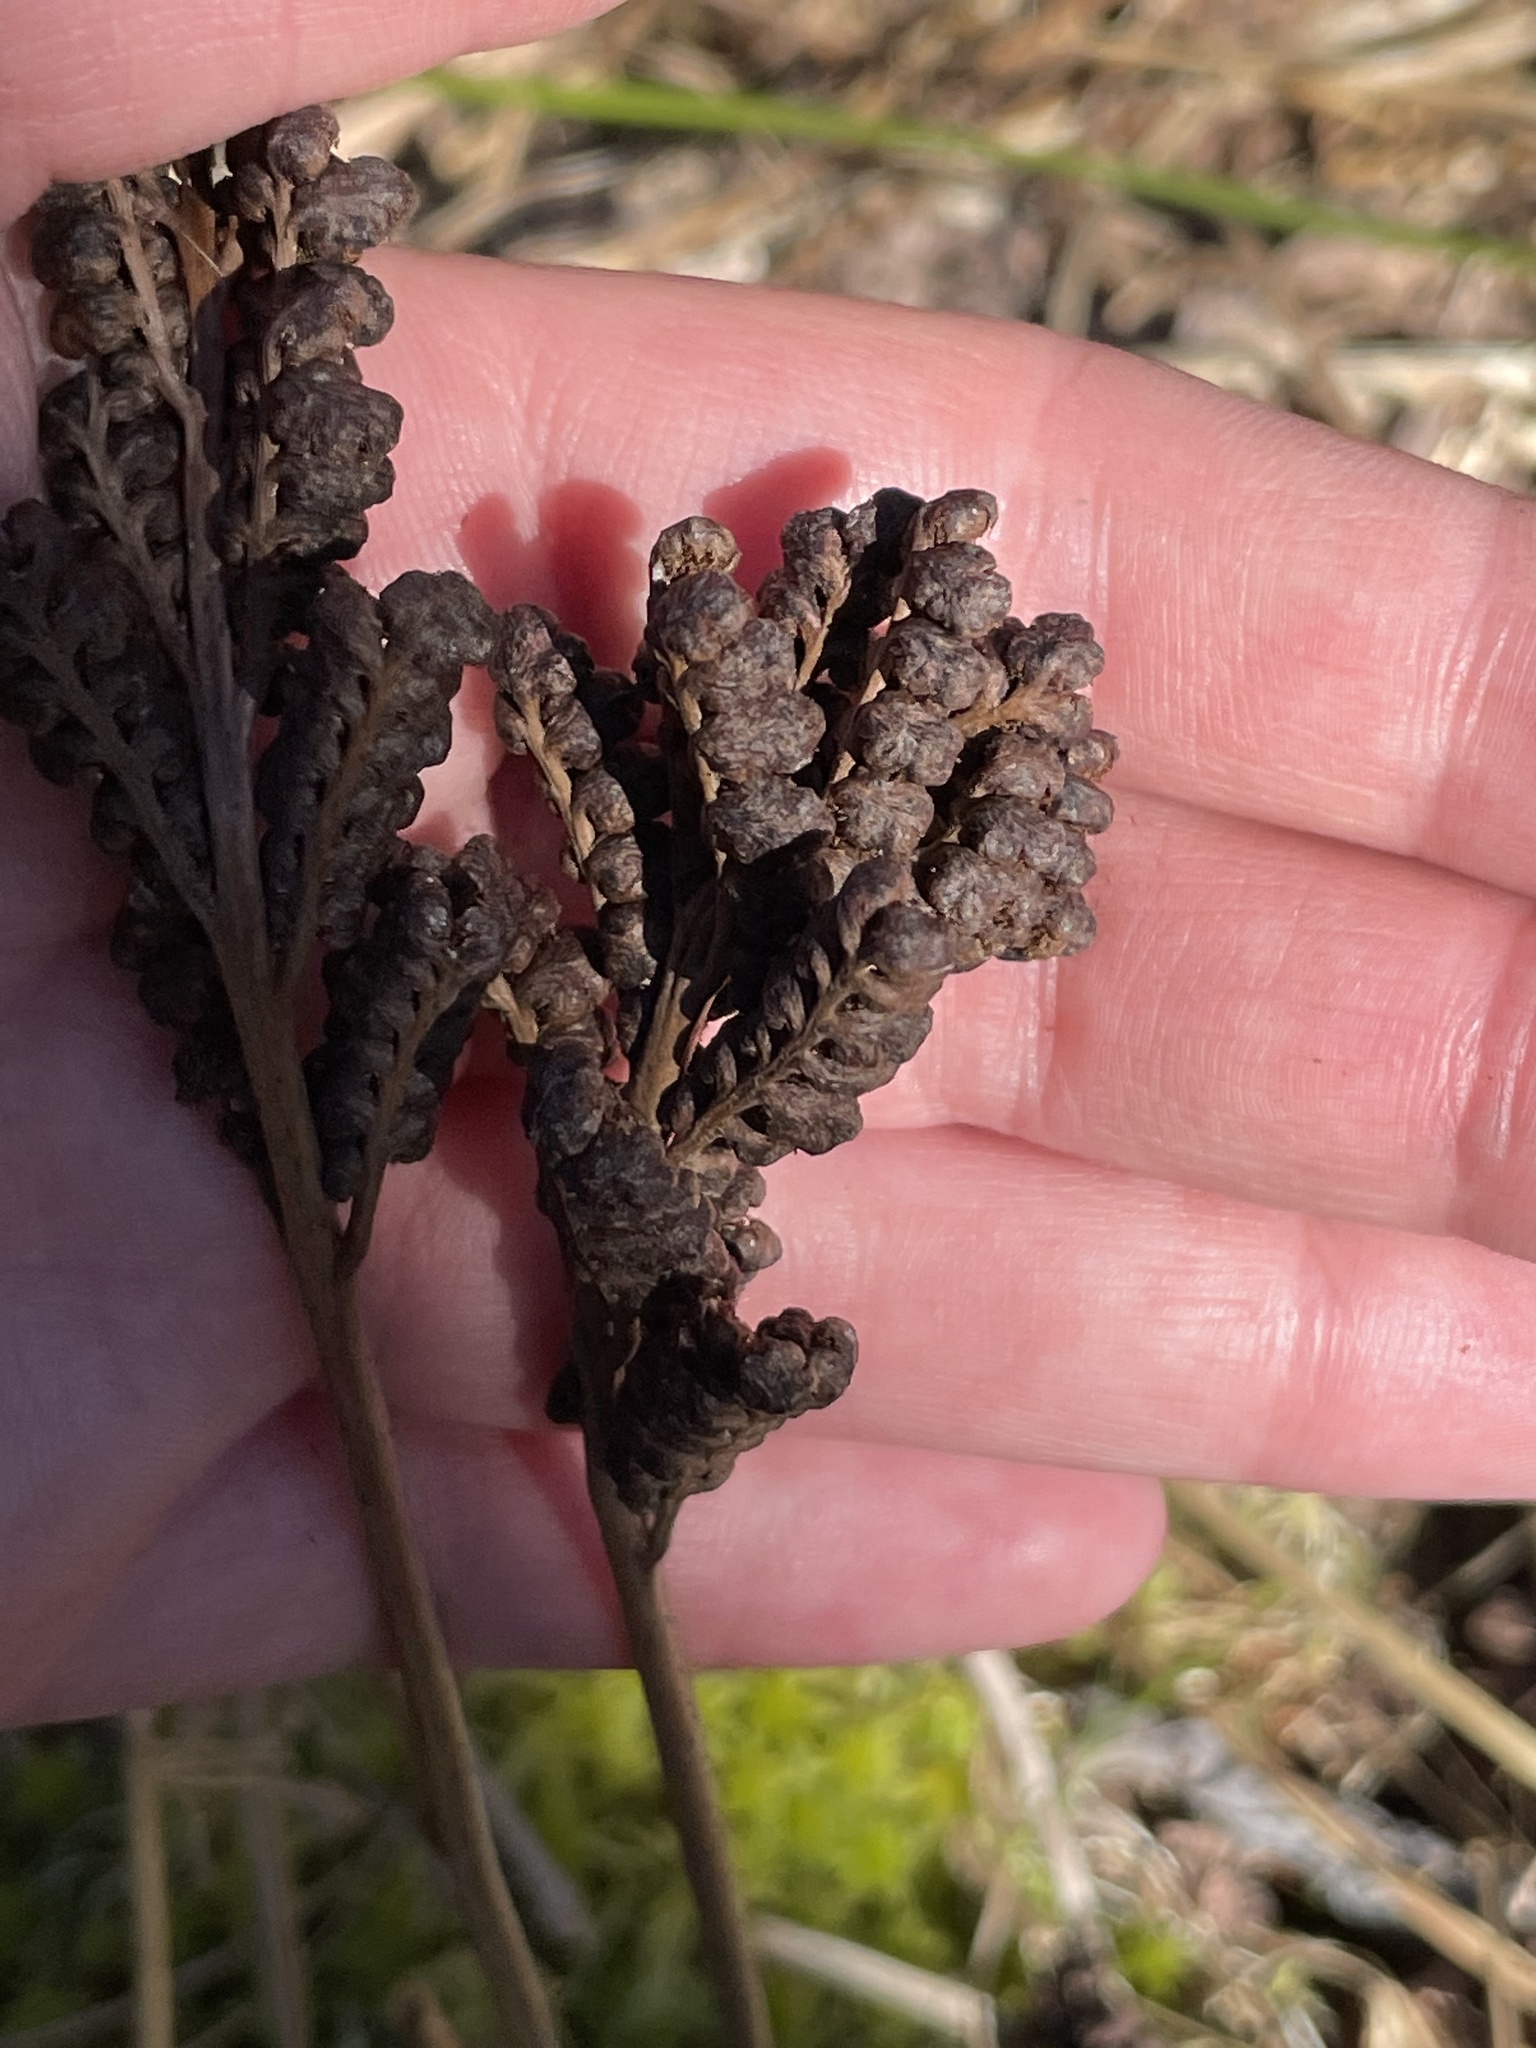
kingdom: Plantae
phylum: Tracheophyta
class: Polypodiopsida
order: Polypodiales
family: Onocleaceae
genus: Onoclea
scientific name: Onoclea sensibilis
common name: Sensitive fern
